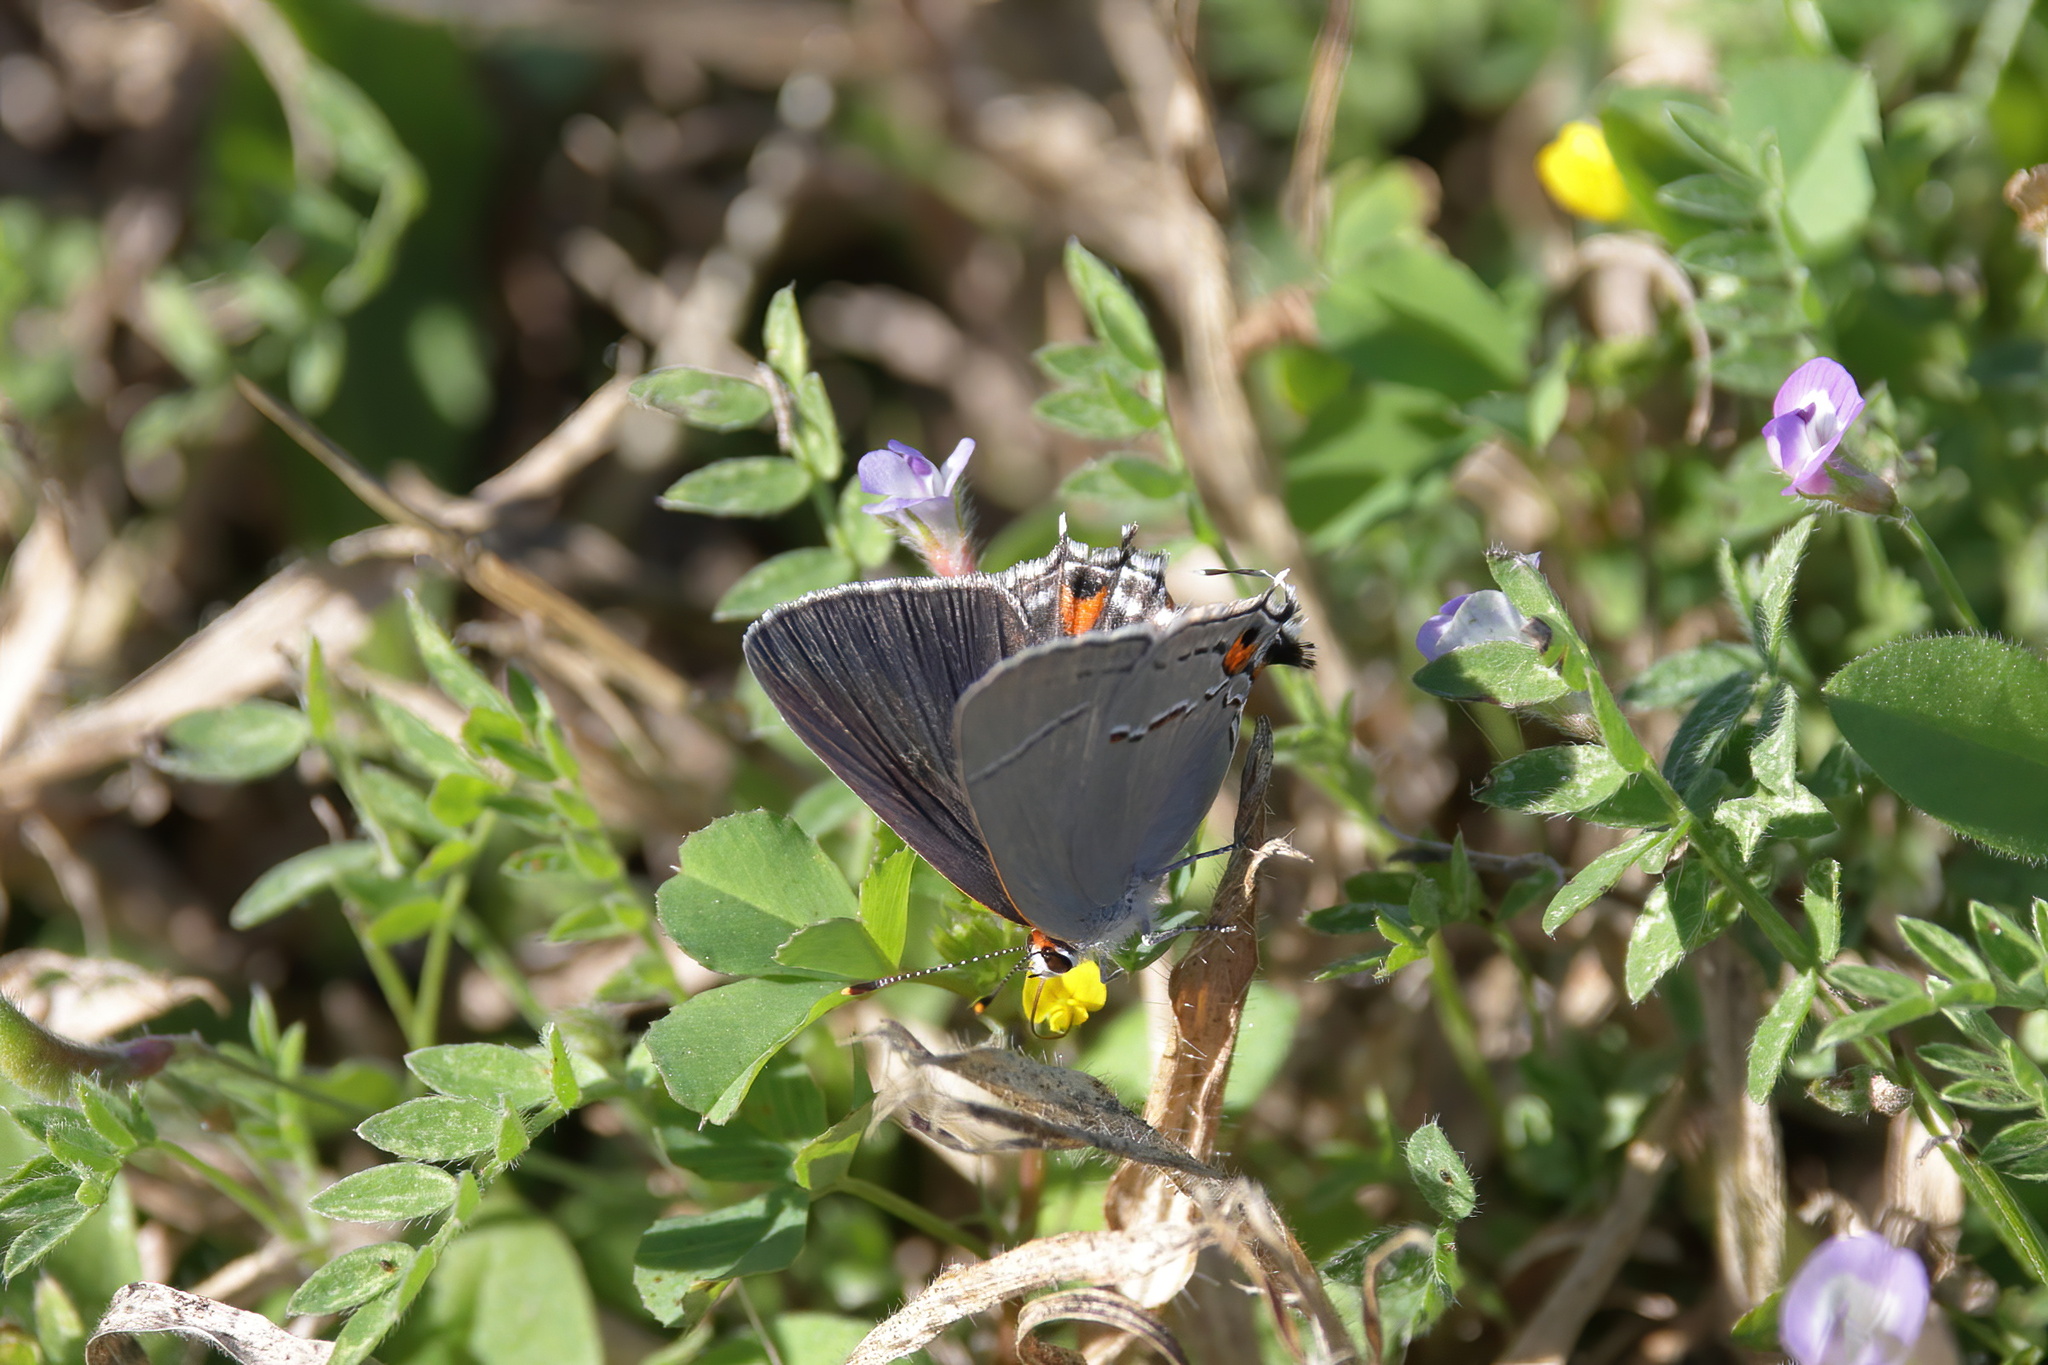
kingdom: Animalia
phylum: Arthropoda
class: Insecta
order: Lepidoptera
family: Lycaenidae
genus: Strymon
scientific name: Strymon melinus
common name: Gray hairstreak
